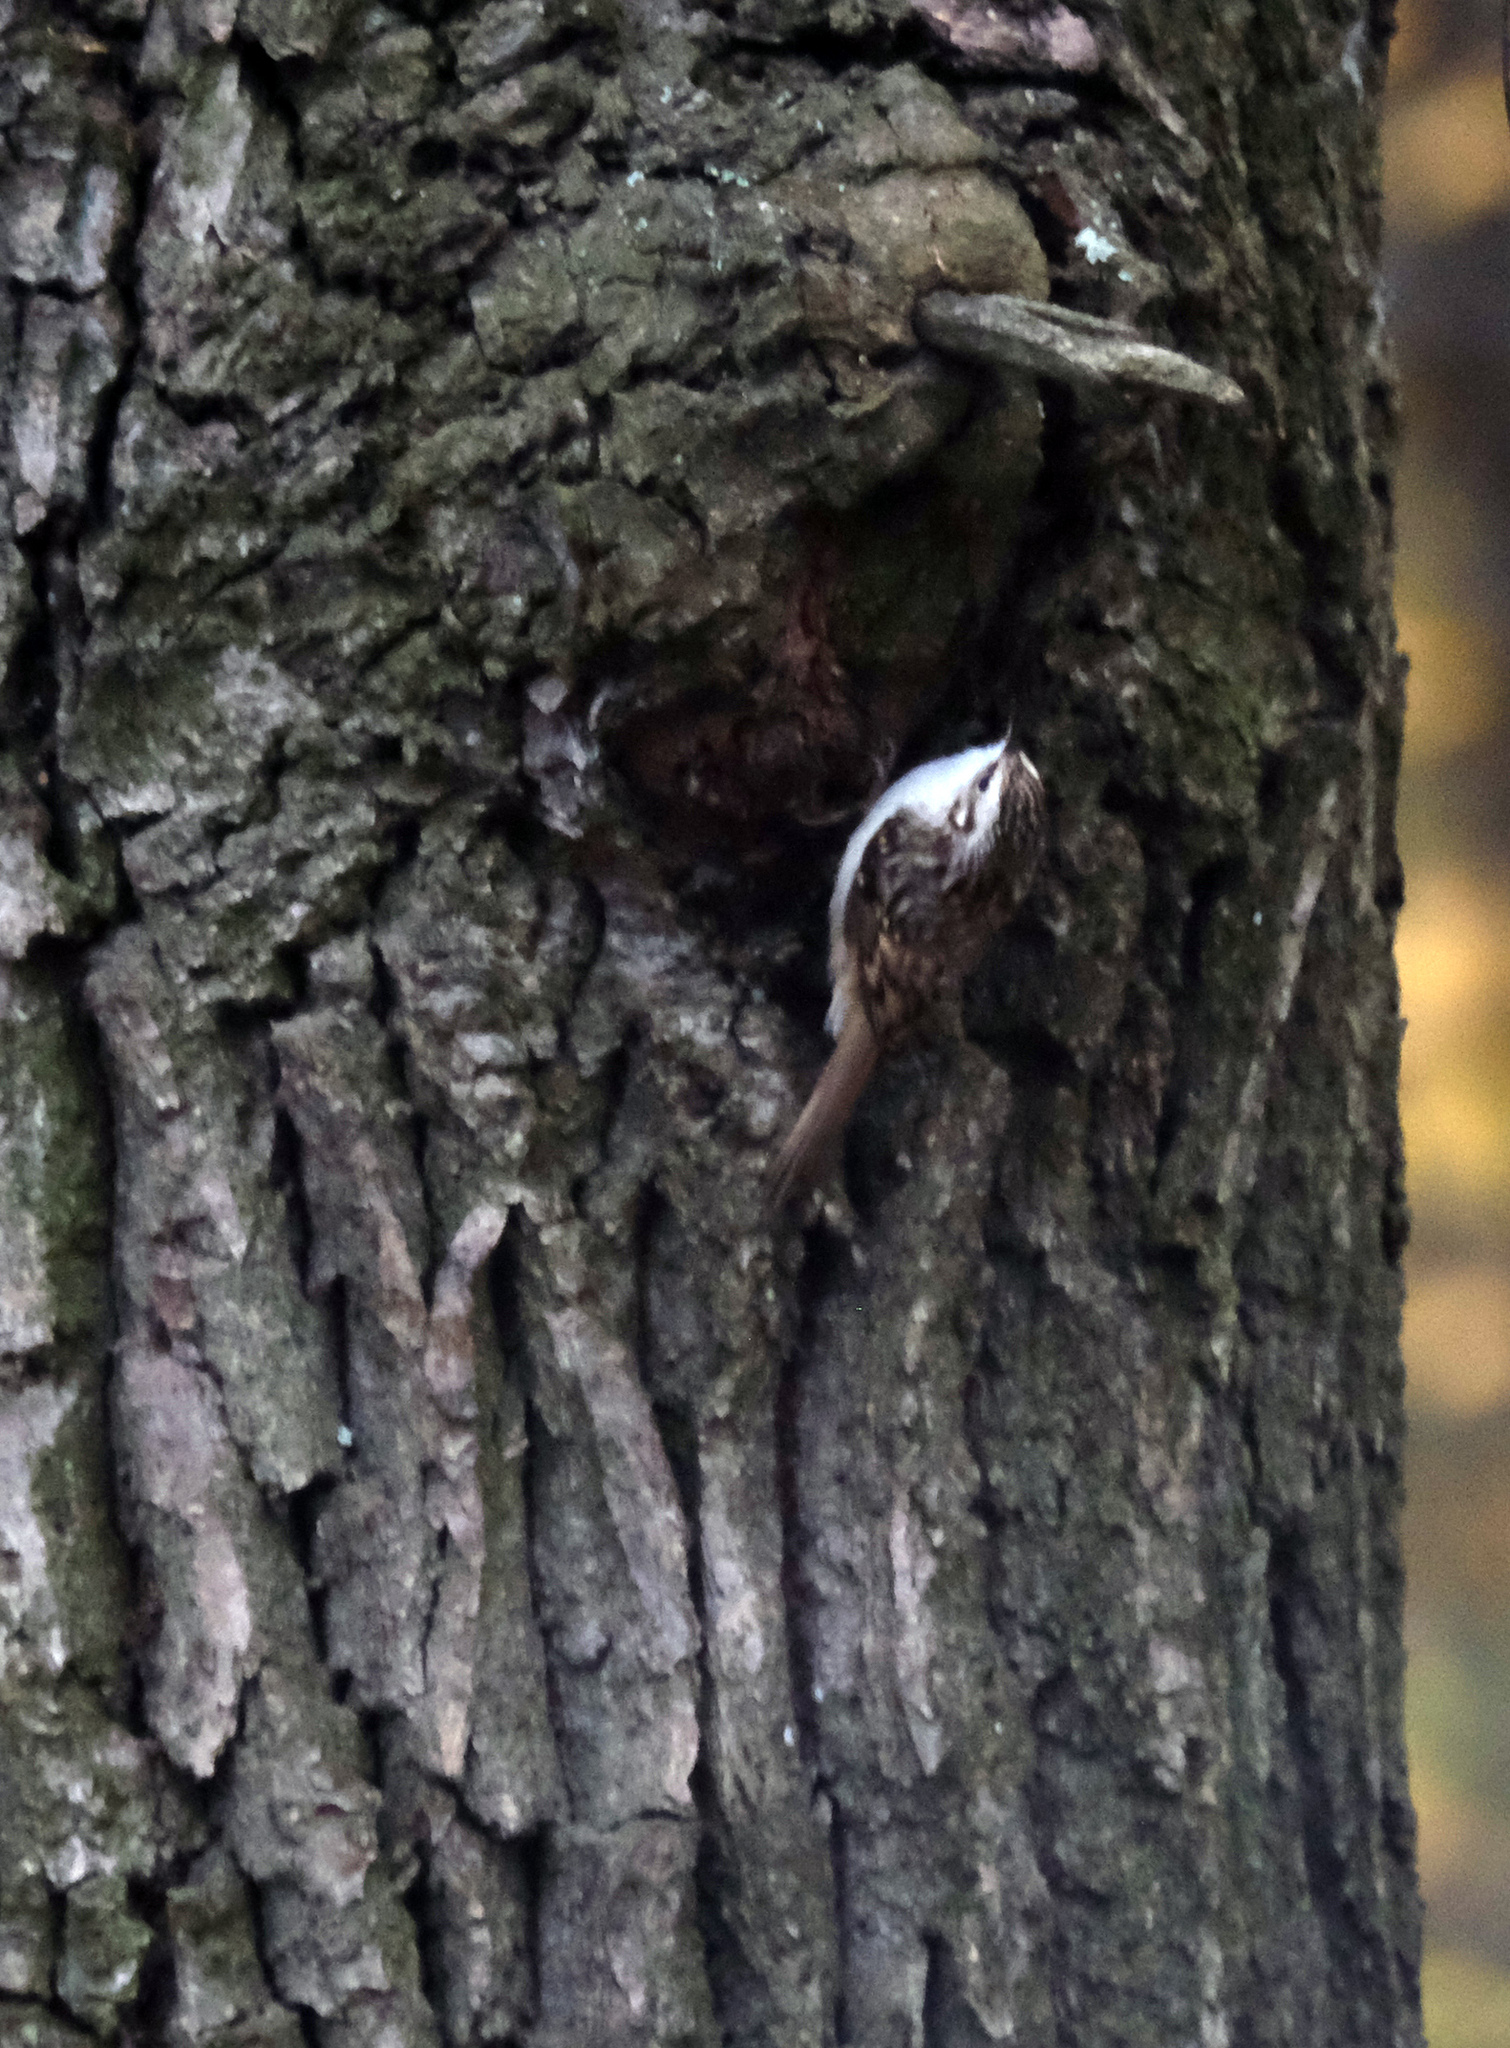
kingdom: Animalia
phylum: Chordata
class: Aves
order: Passeriformes
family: Certhiidae
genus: Certhia
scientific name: Certhia familiaris
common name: Eurasian treecreeper
